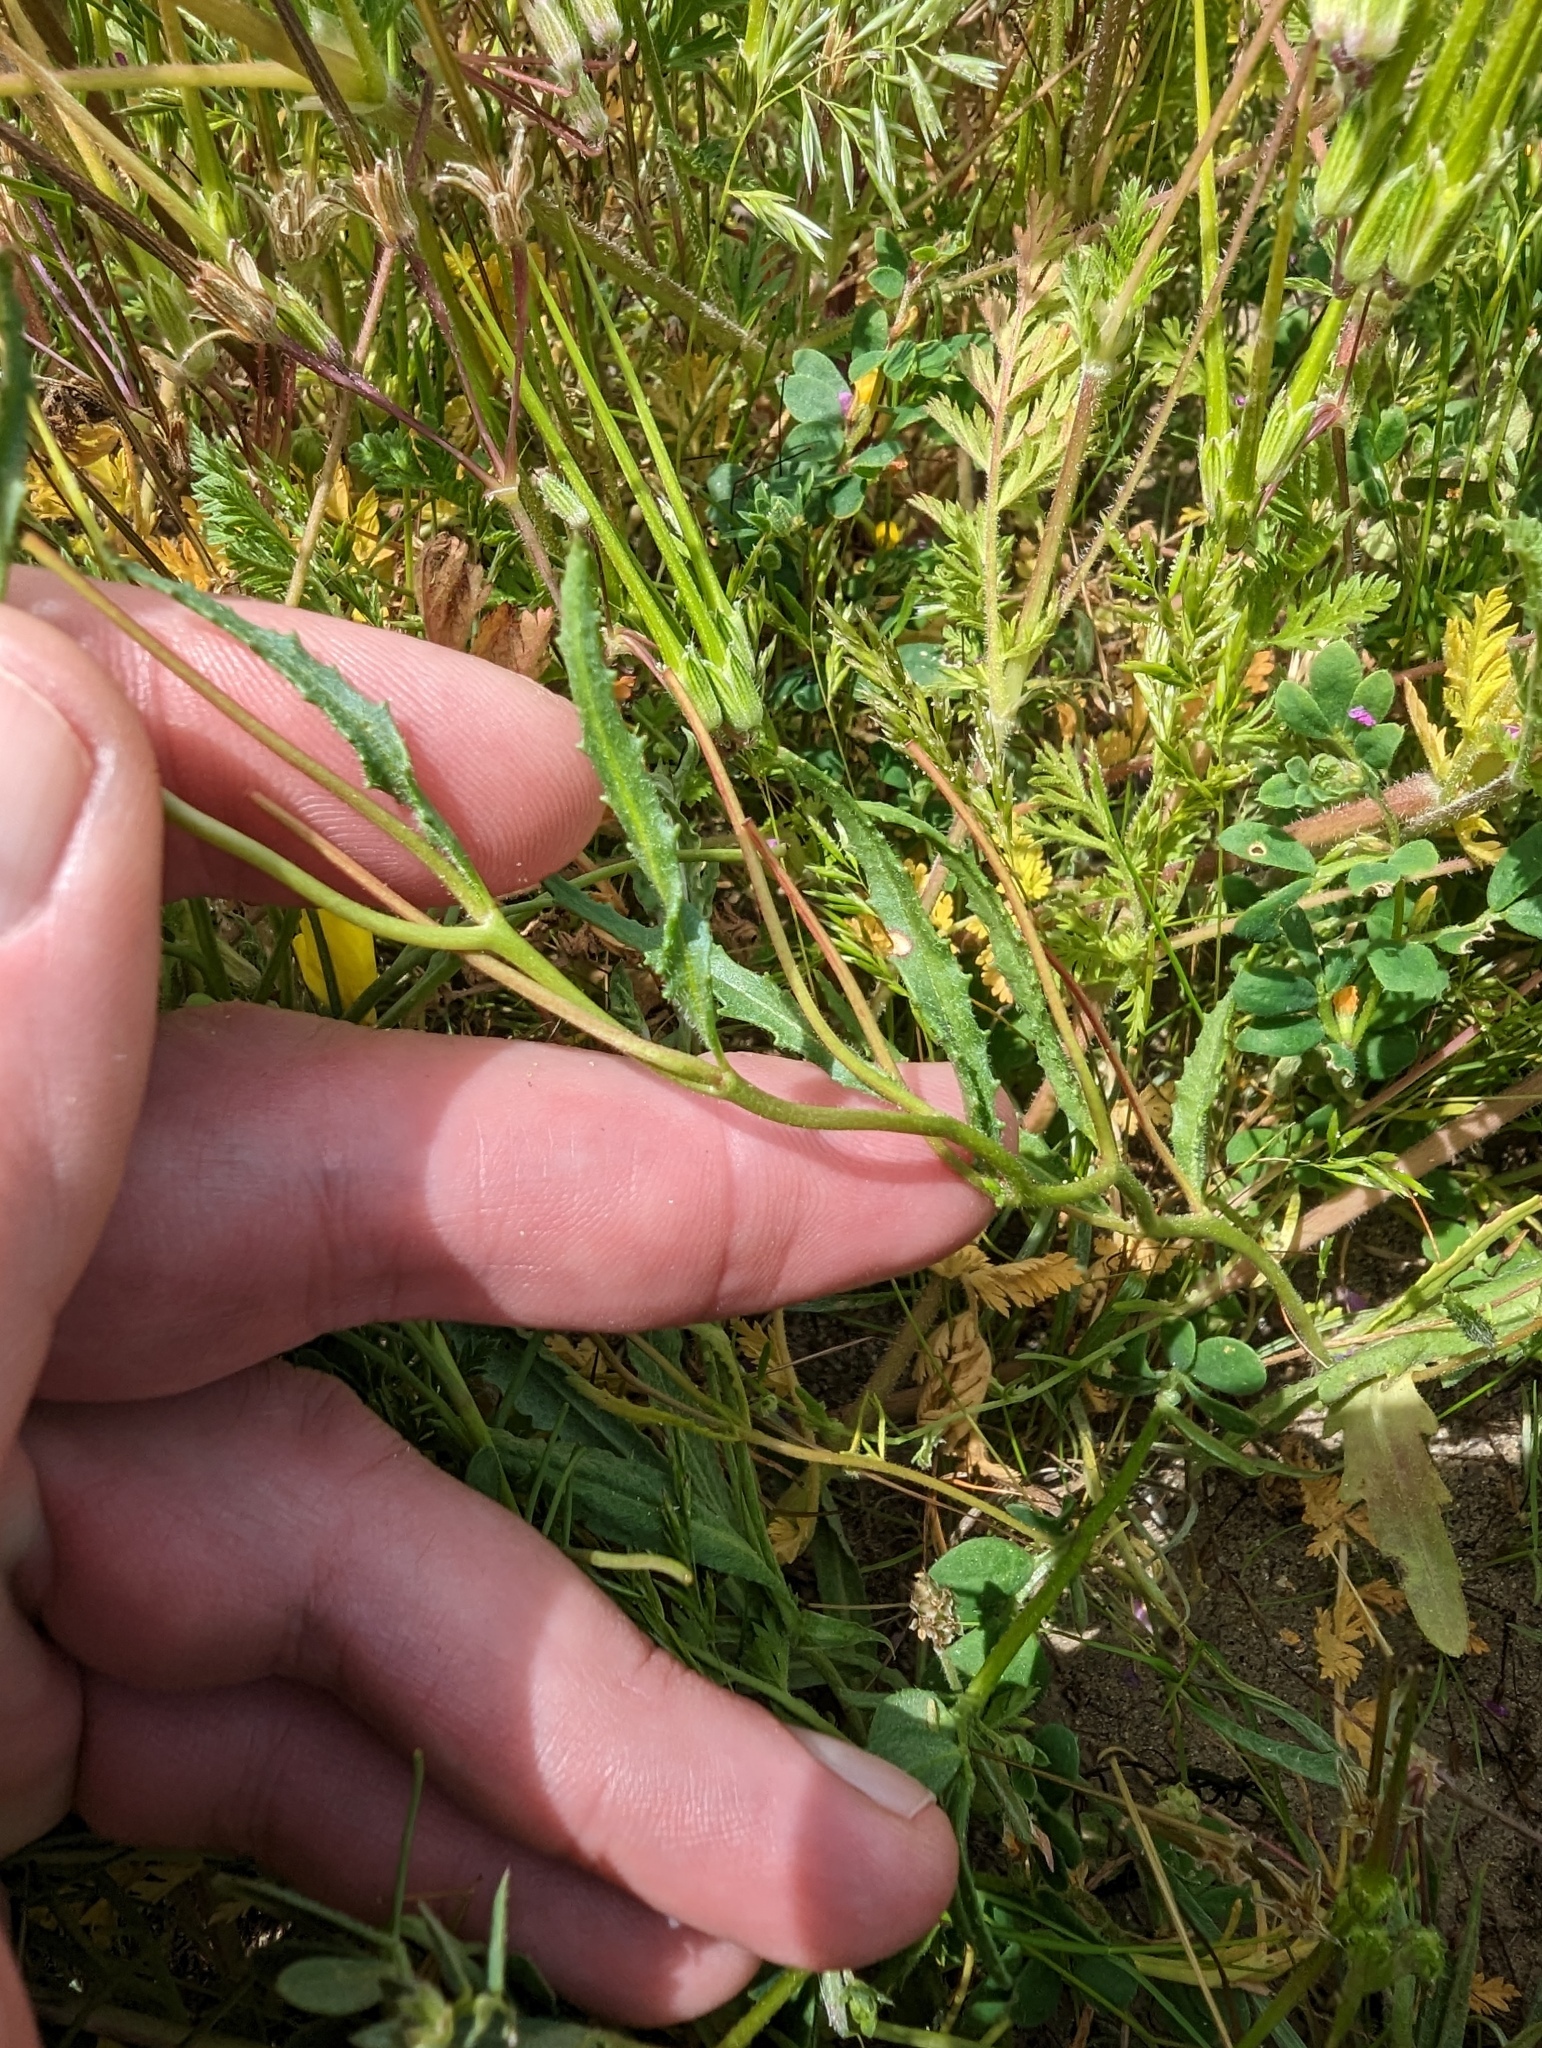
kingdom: Plantae
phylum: Tracheophyta
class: Magnoliopsida
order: Myrtales
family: Onagraceae
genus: Camissonia
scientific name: Camissonia campestris
